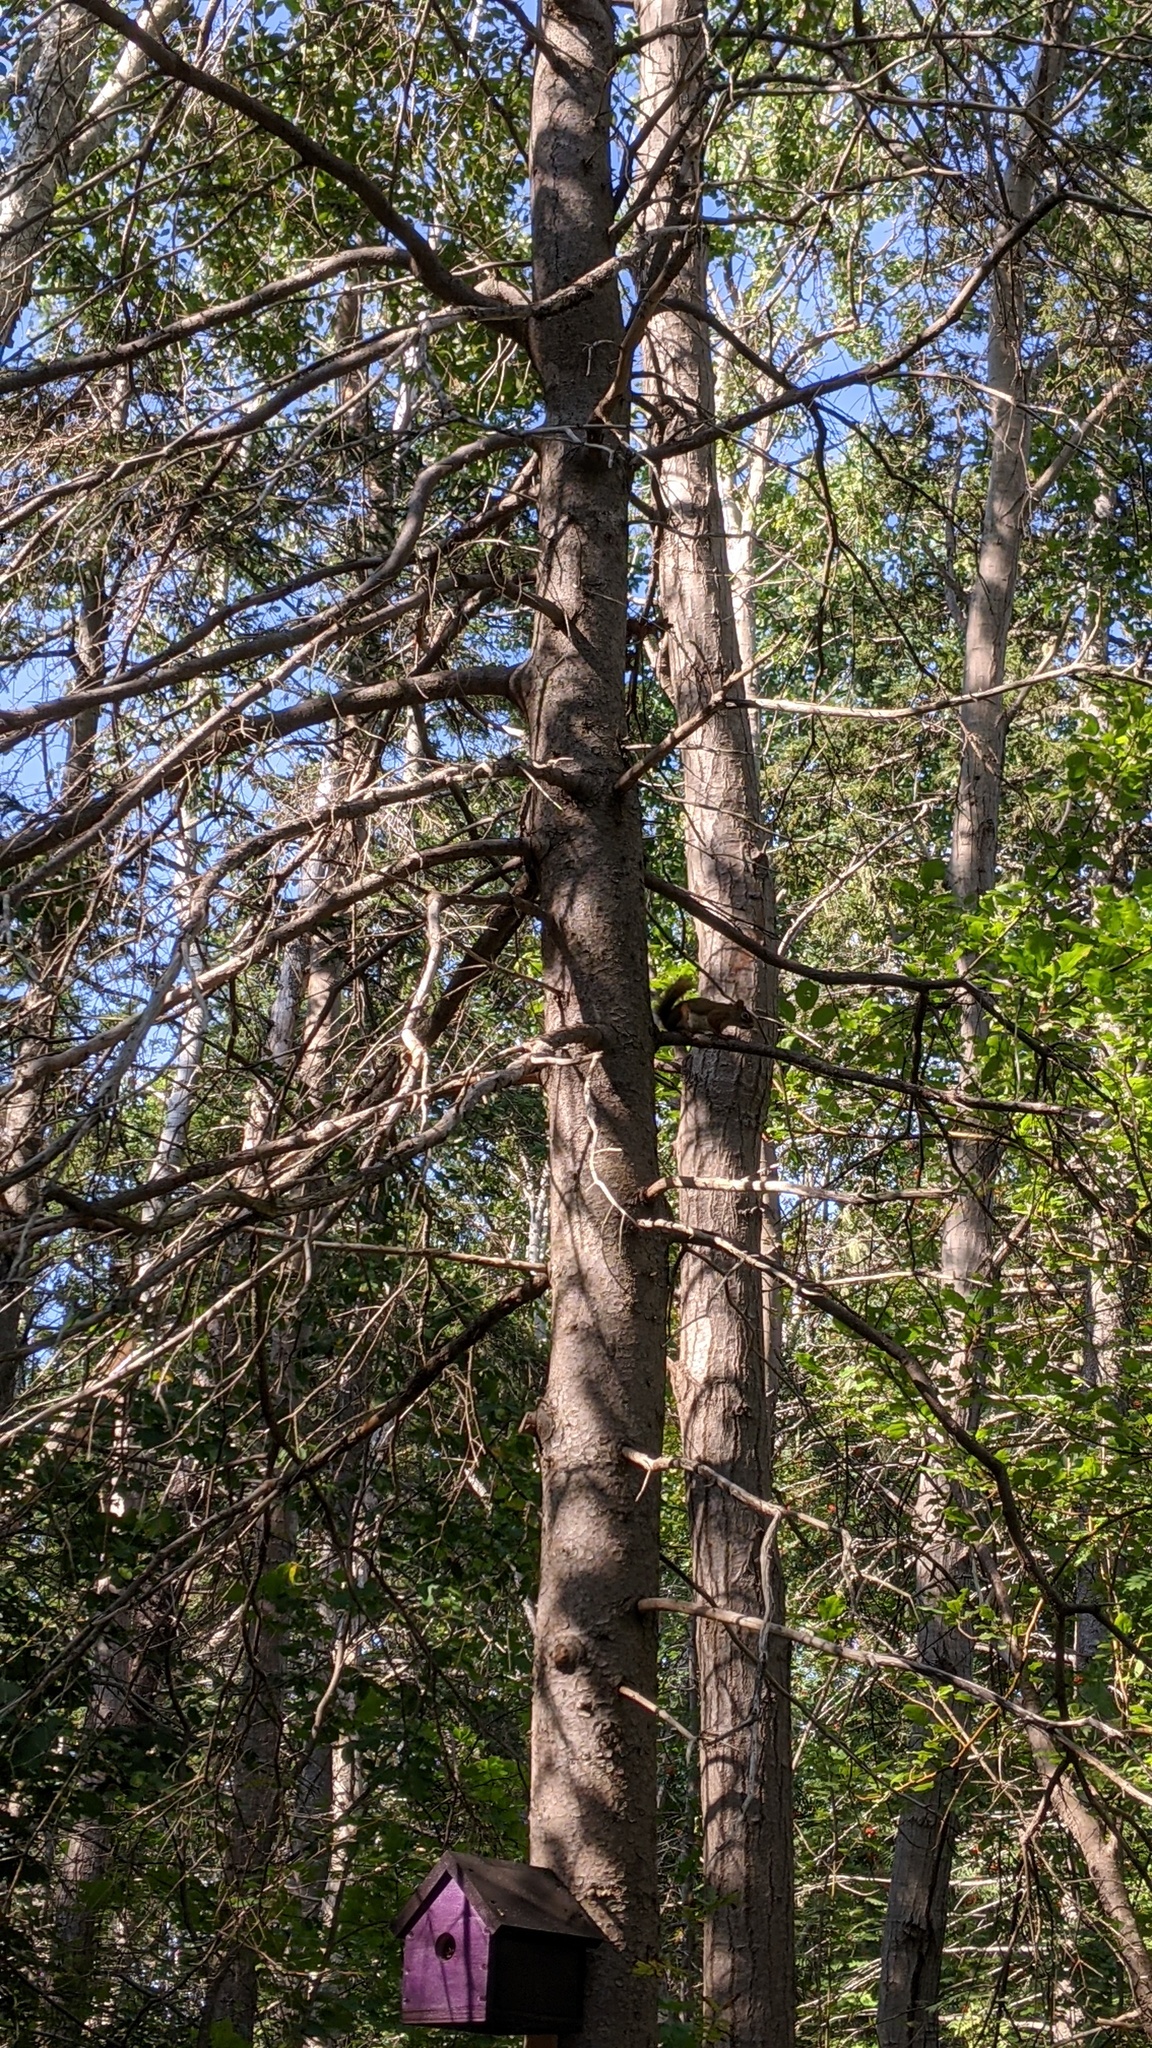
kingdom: Animalia
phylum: Chordata
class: Mammalia
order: Rodentia
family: Sciuridae
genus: Tamiasciurus
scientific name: Tamiasciurus hudsonicus
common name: Red squirrel
